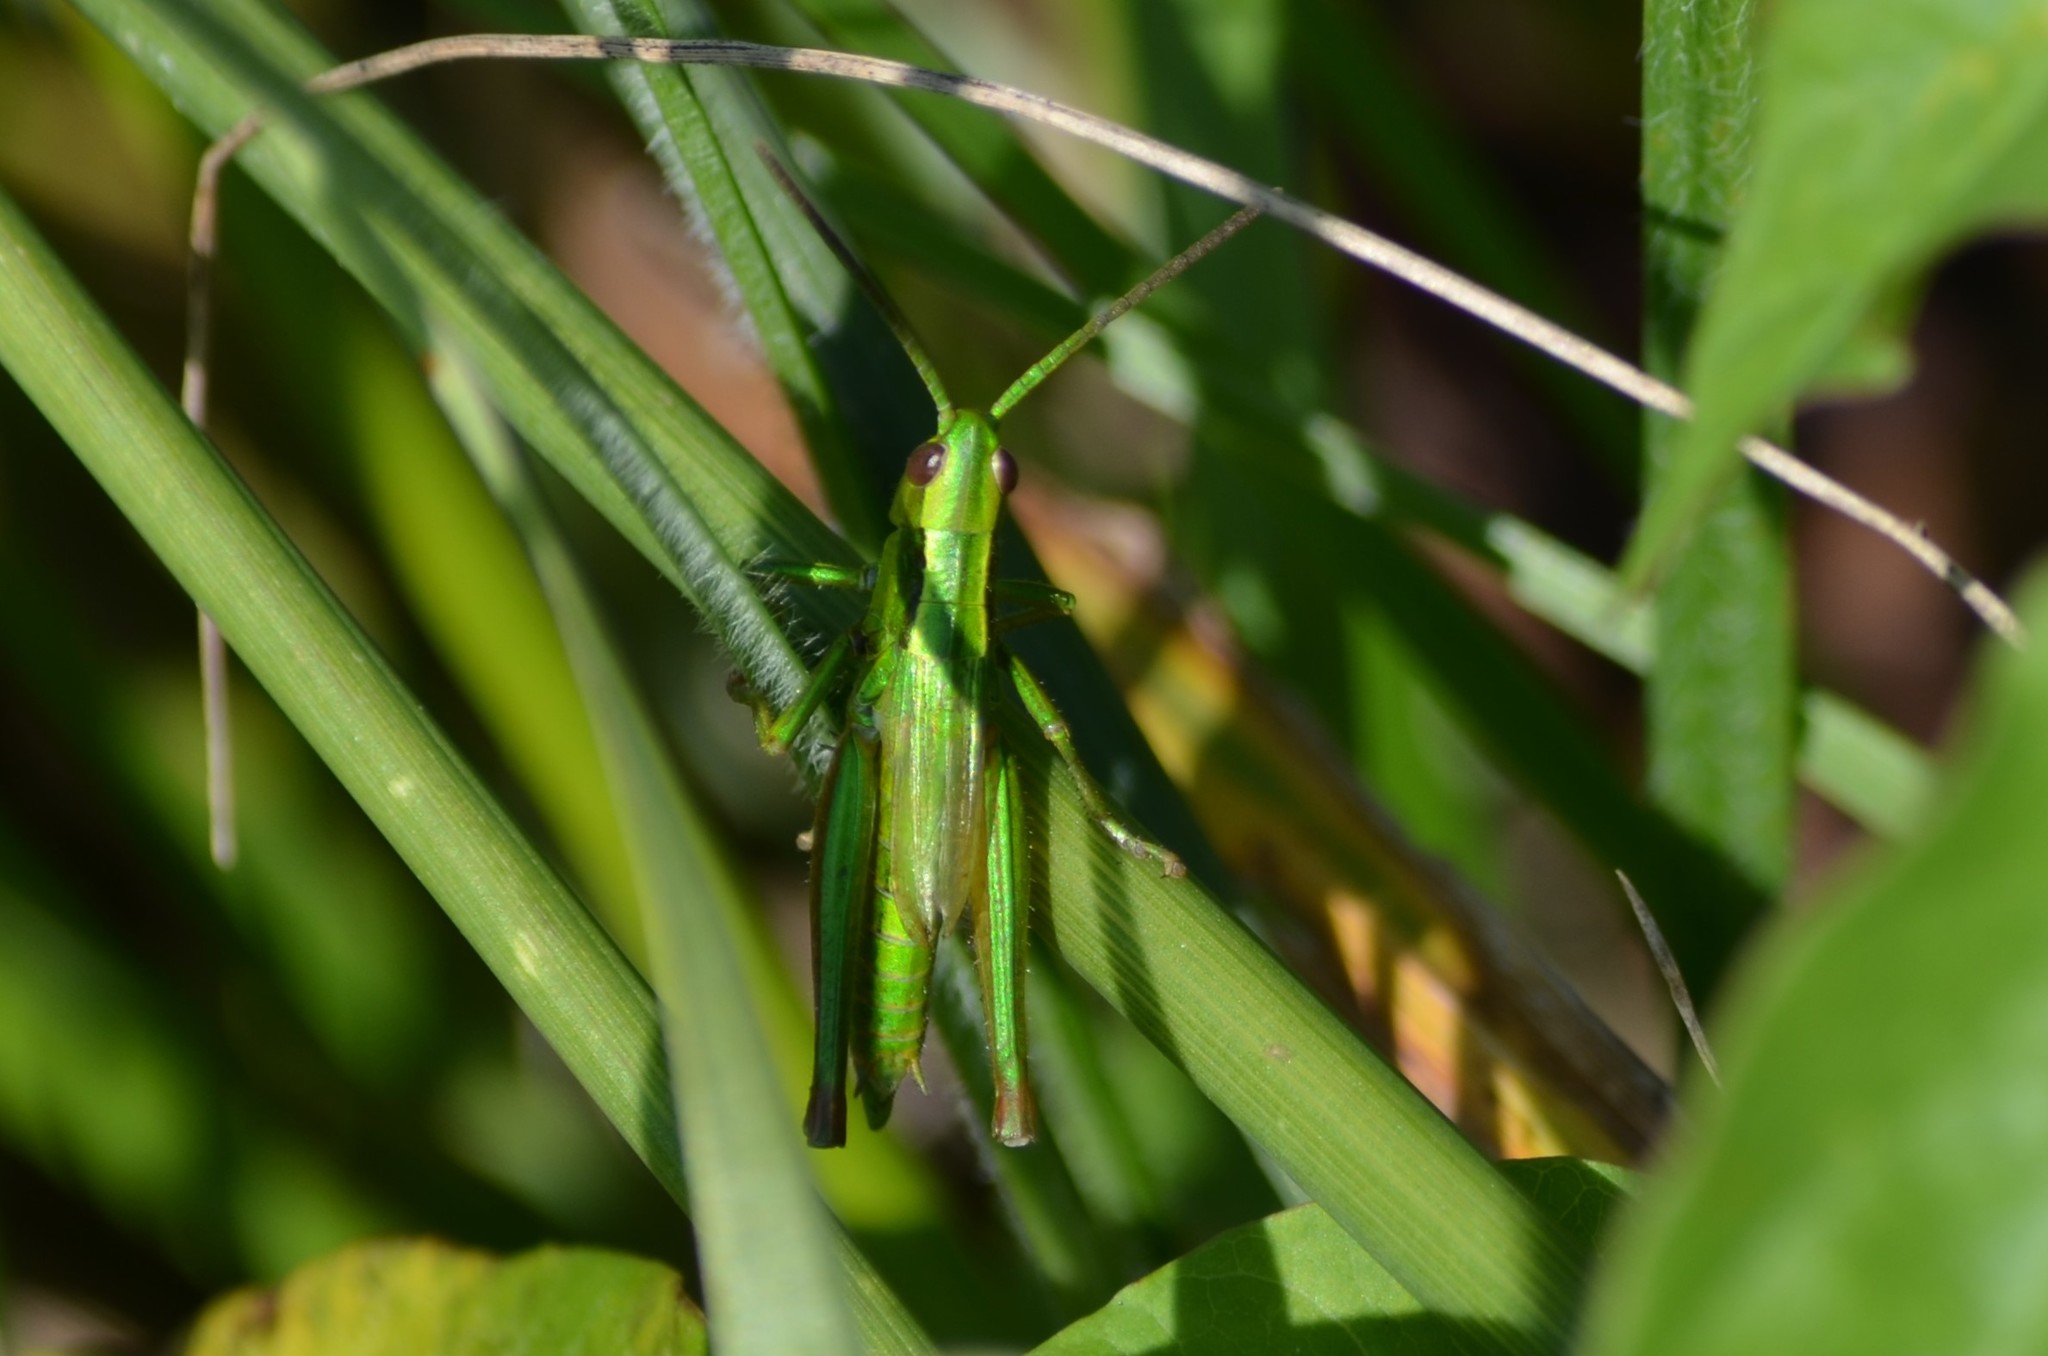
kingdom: Animalia
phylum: Arthropoda
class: Insecta
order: Orthoptera
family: Acrididae
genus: Euthystira
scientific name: Euthystira brachyptera
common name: Small gold grasshopper
